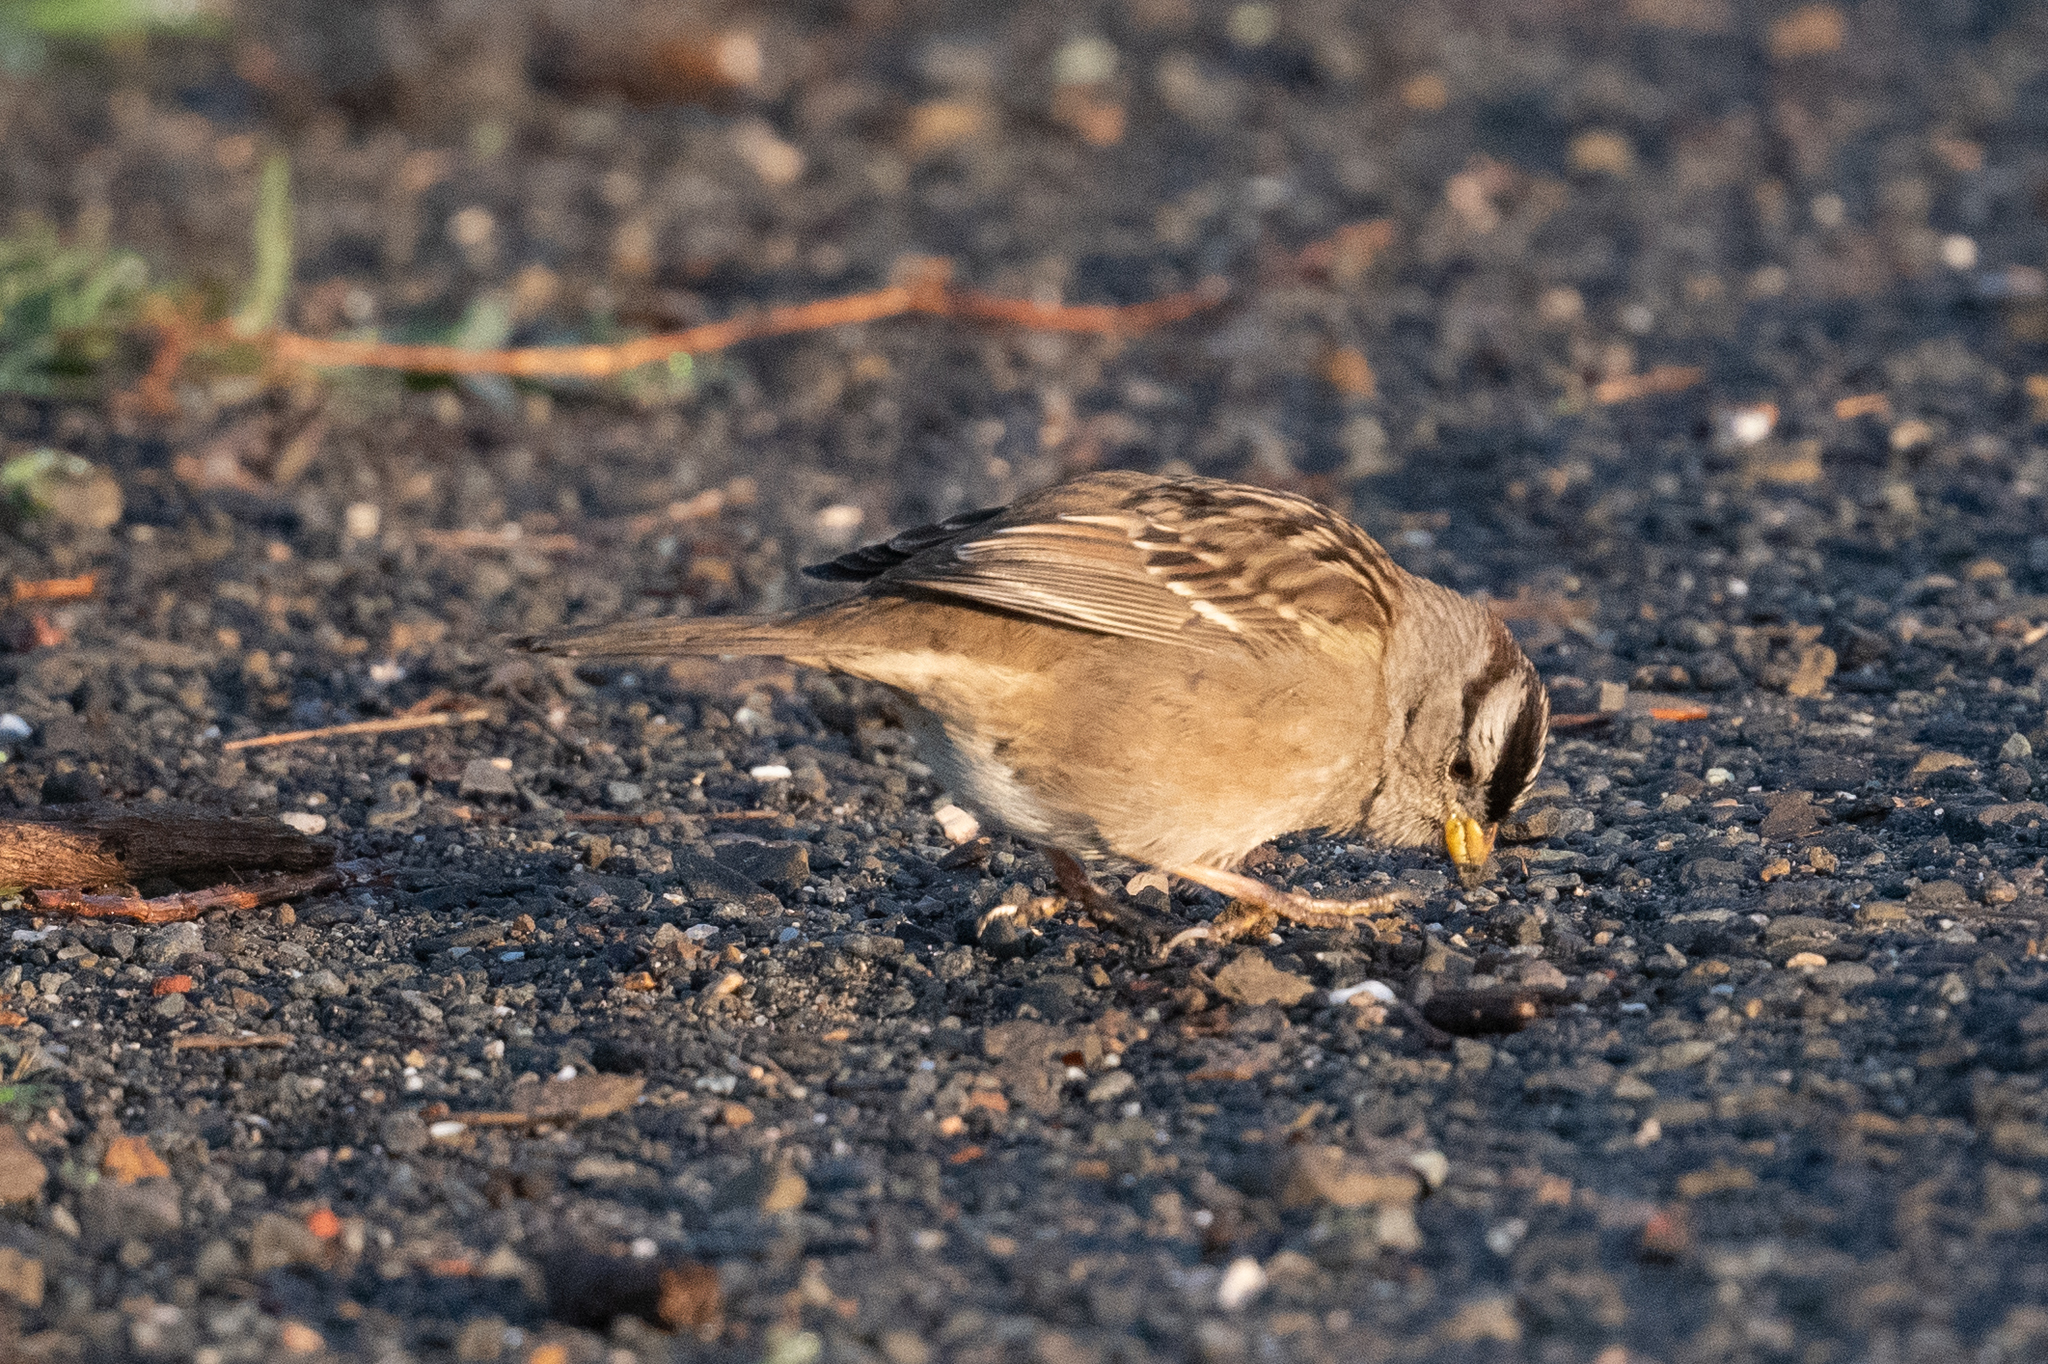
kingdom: Animalia
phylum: Chordata
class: Aves
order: Passeriformes
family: Passerellidae
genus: Zonotrichia
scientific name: Zonotrichia leucophrys
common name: White-crowned sparrow
